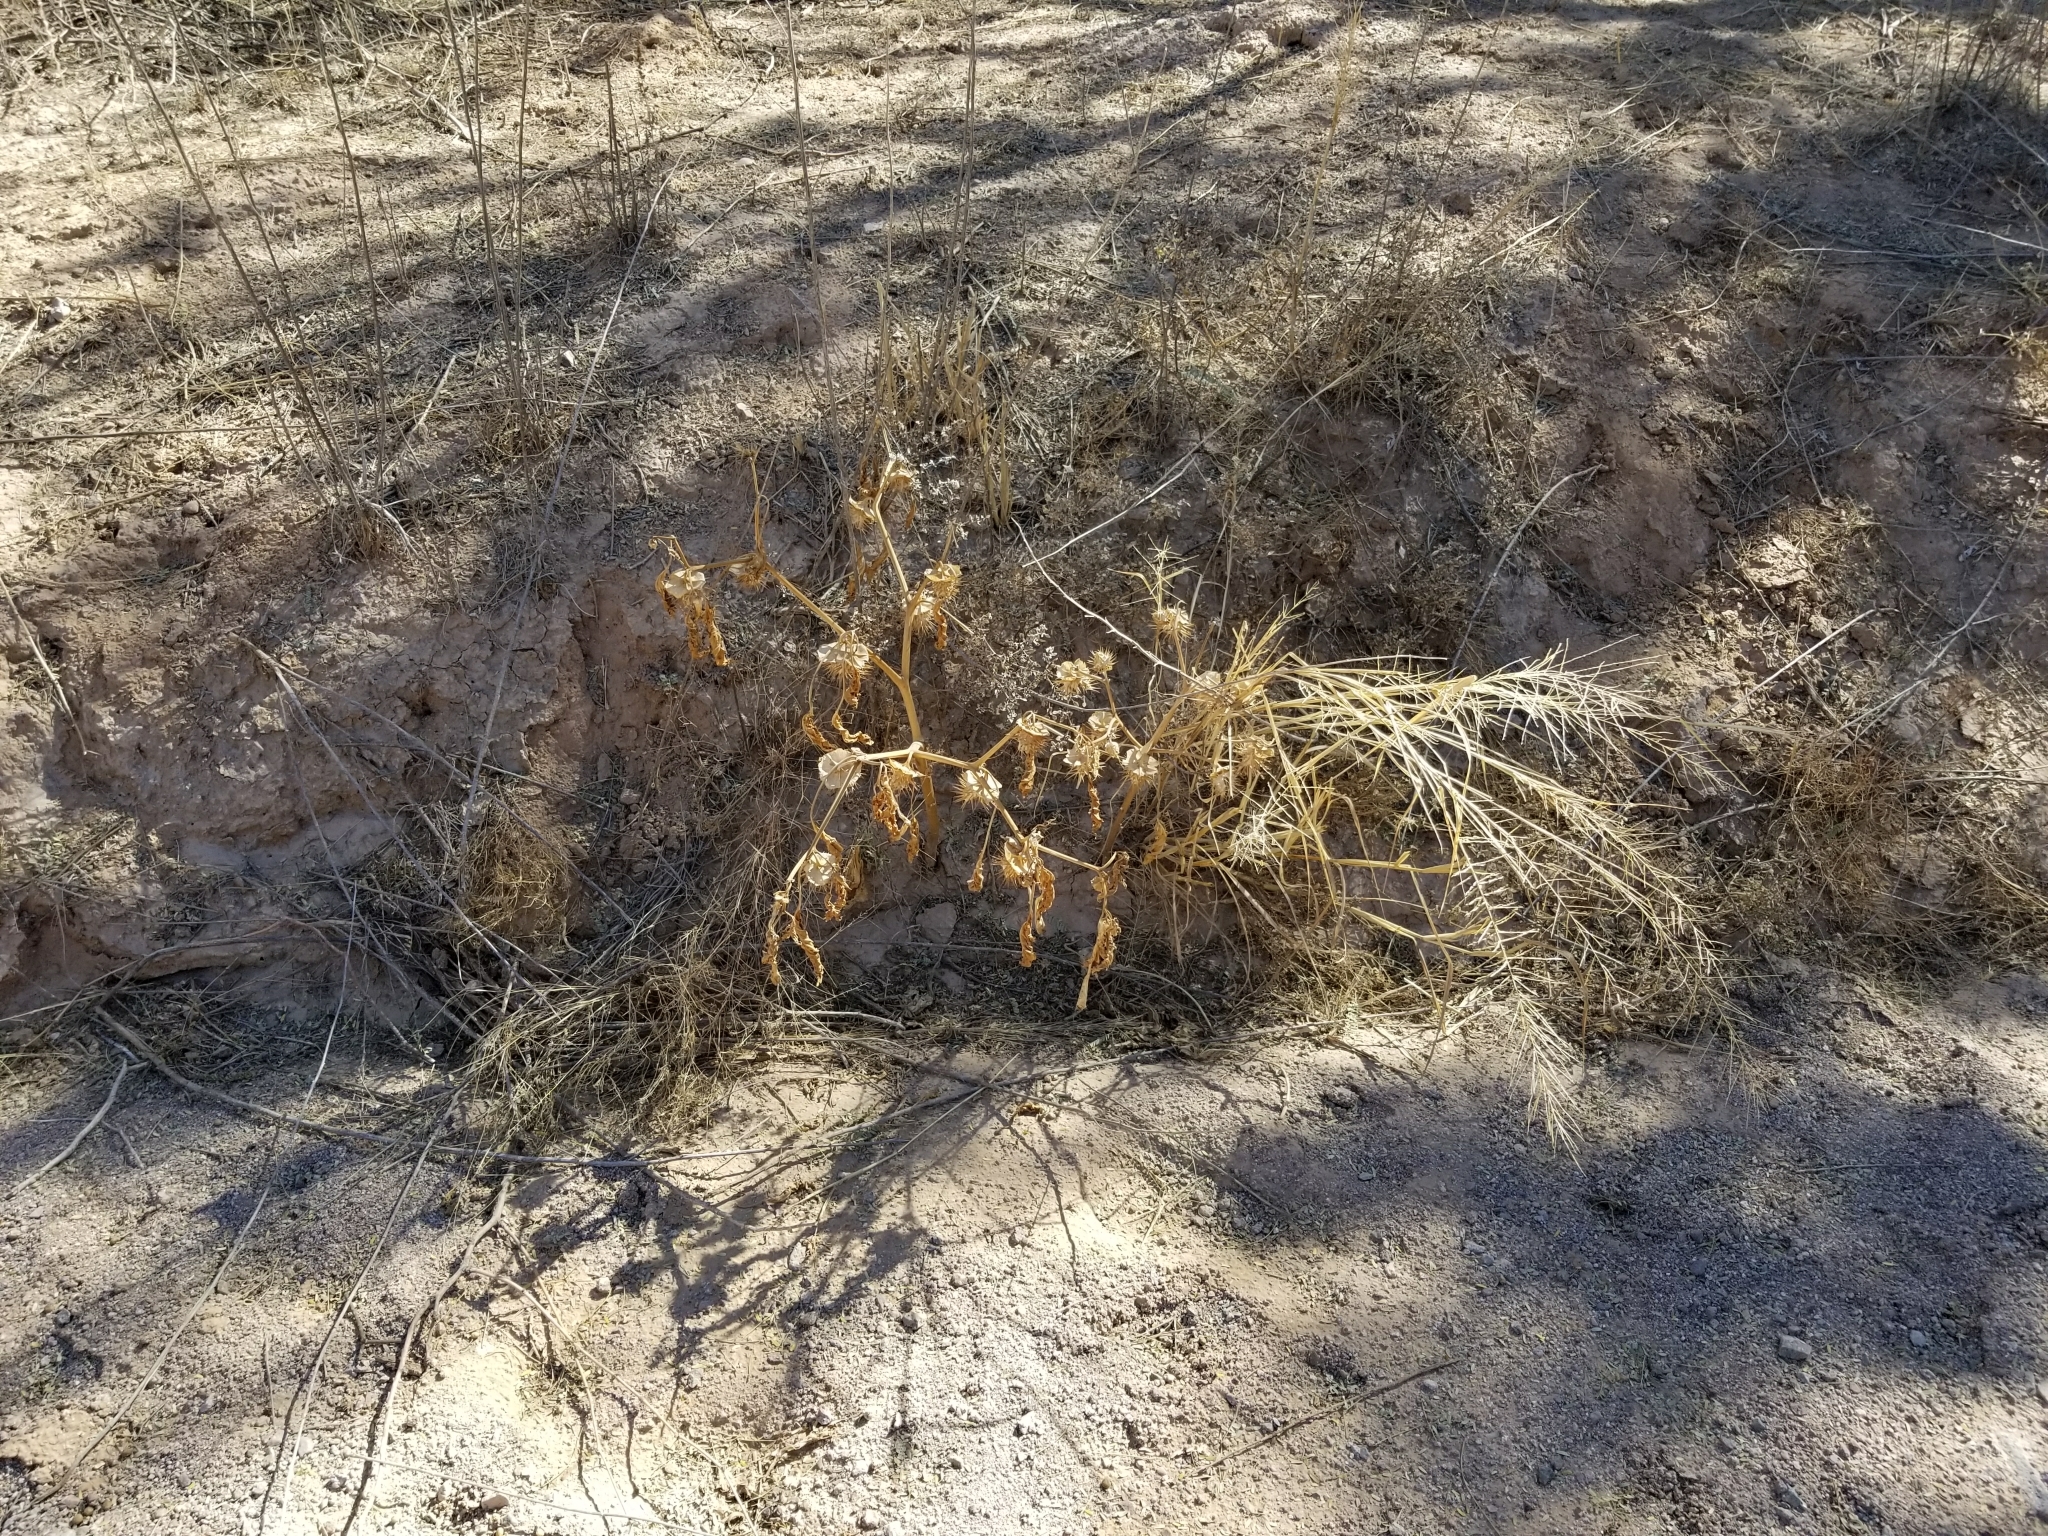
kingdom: Plantae
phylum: Tracheophyta
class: Magnoliopsida
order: Solanales
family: Solanaceae
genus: Datura
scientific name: Datura discolor
